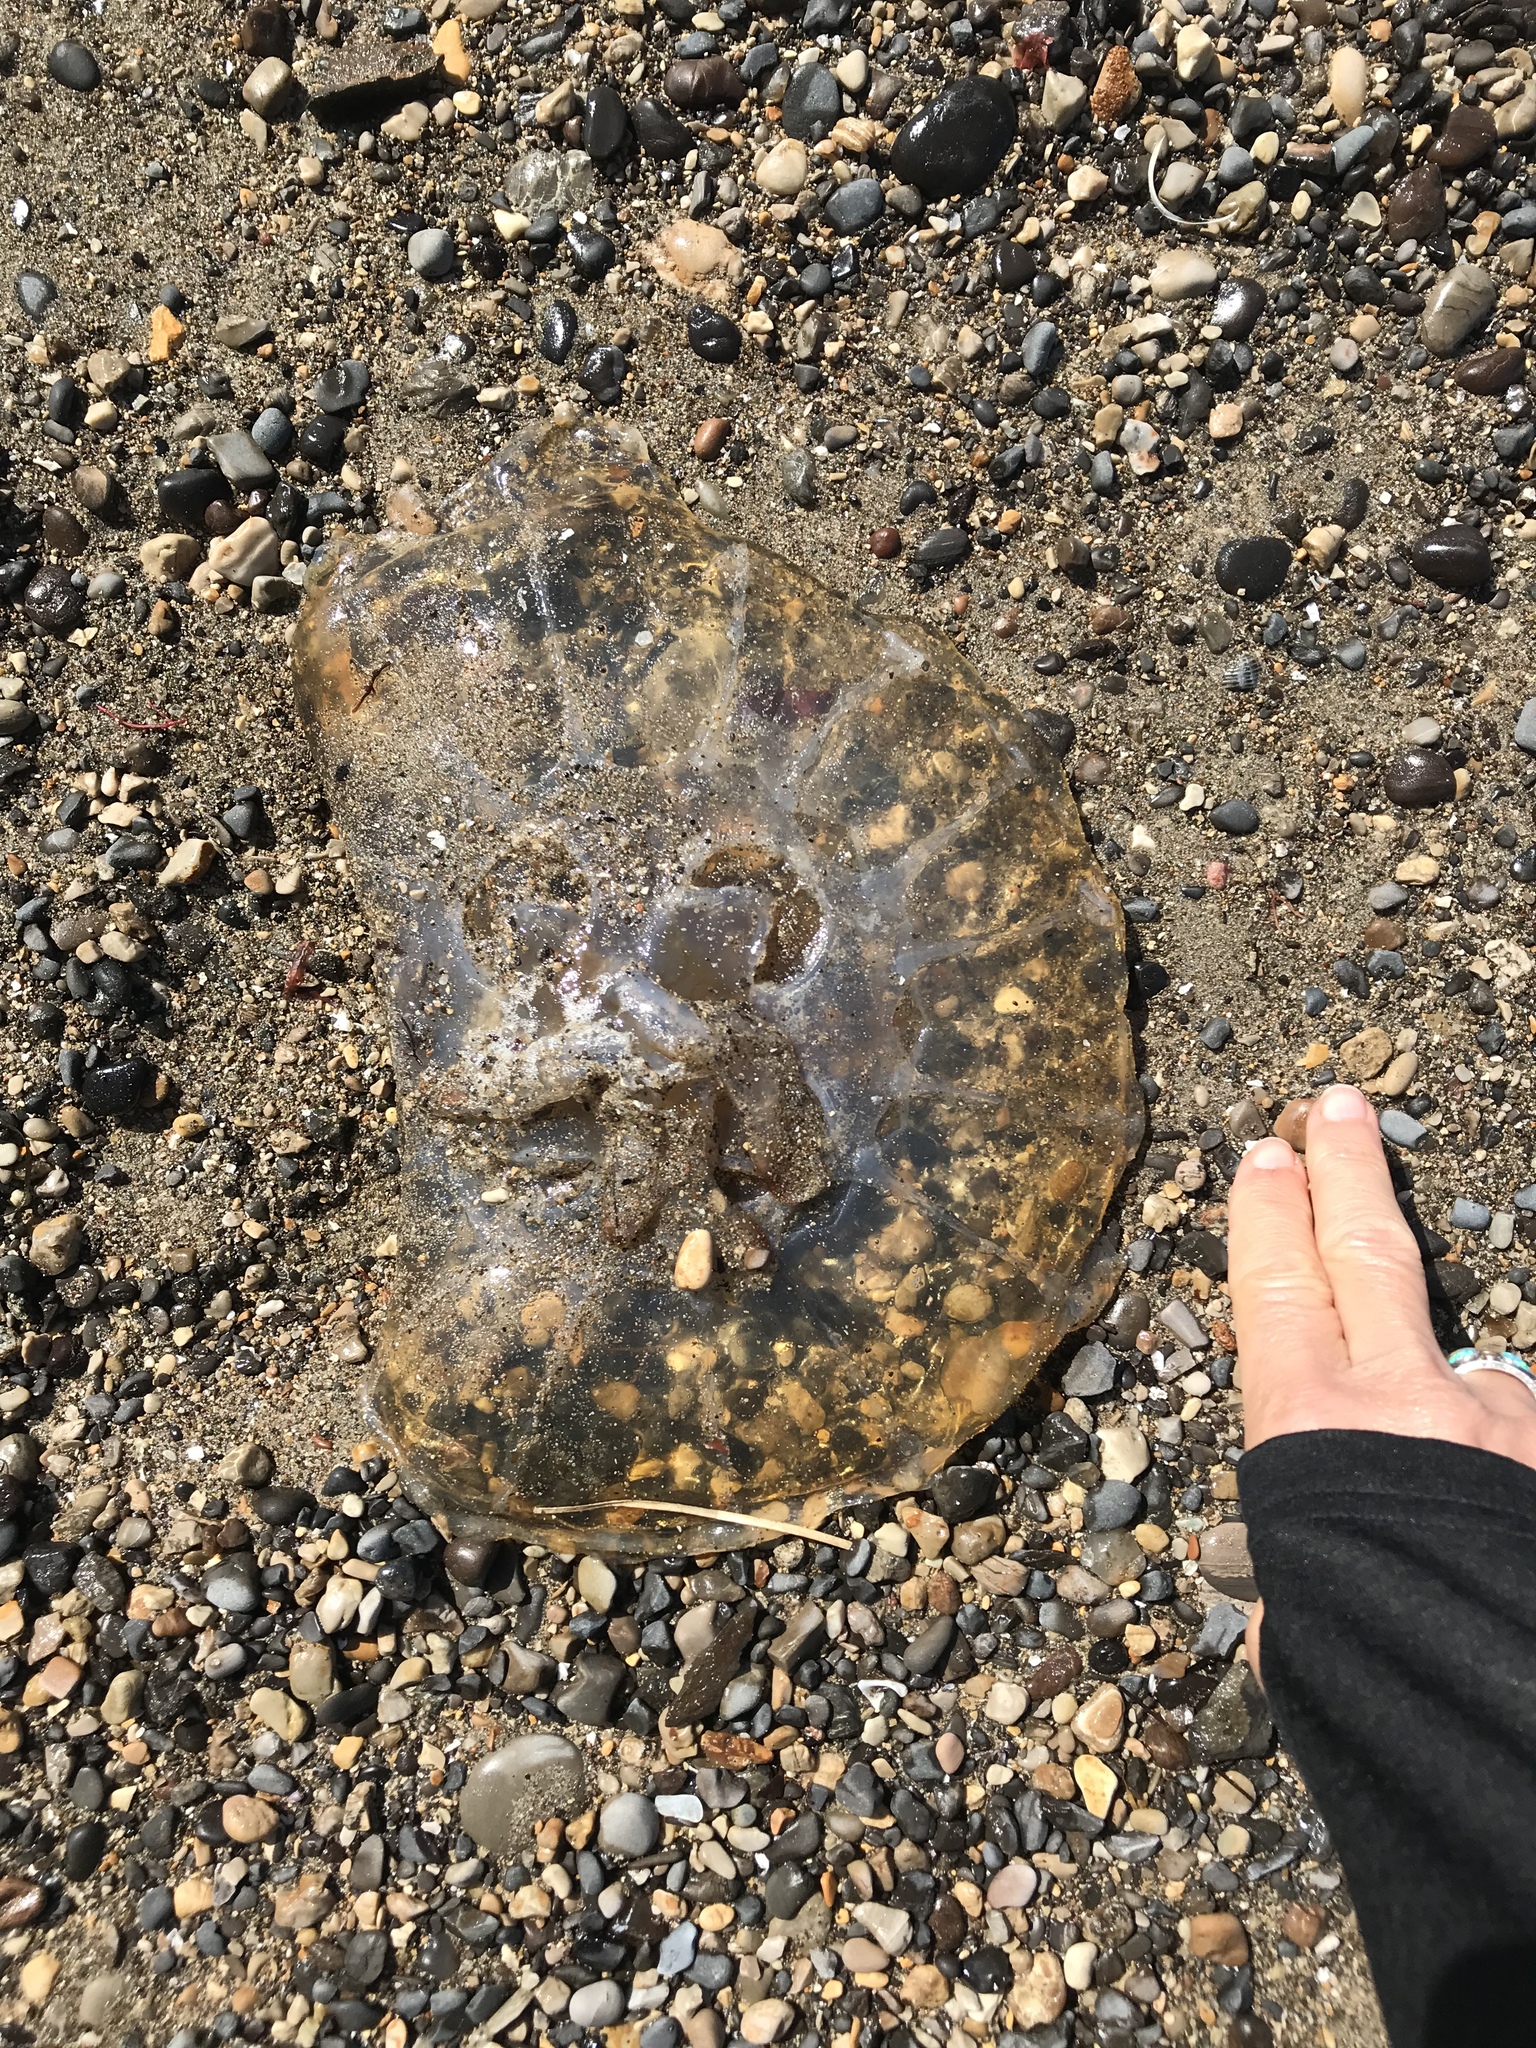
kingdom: Animalia
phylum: Cnidaria
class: Scyphozoa
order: Semaeostomeae
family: Pelagiidae
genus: Chrysaora
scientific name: Chrysaora fuscescens
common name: Sea nettle
